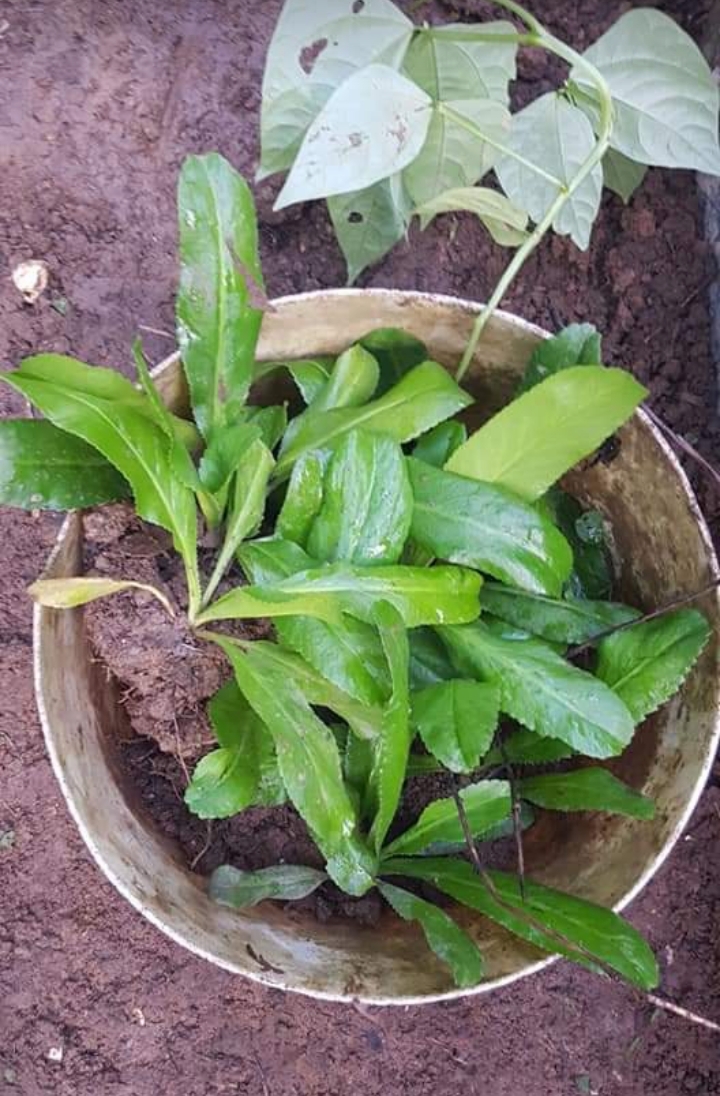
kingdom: Plantae
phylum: Tracheophyta
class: Magnoliopsida
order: Apiales
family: Apiaceae
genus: Eryngium
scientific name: Eryngium foetidum
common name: Fitweed
